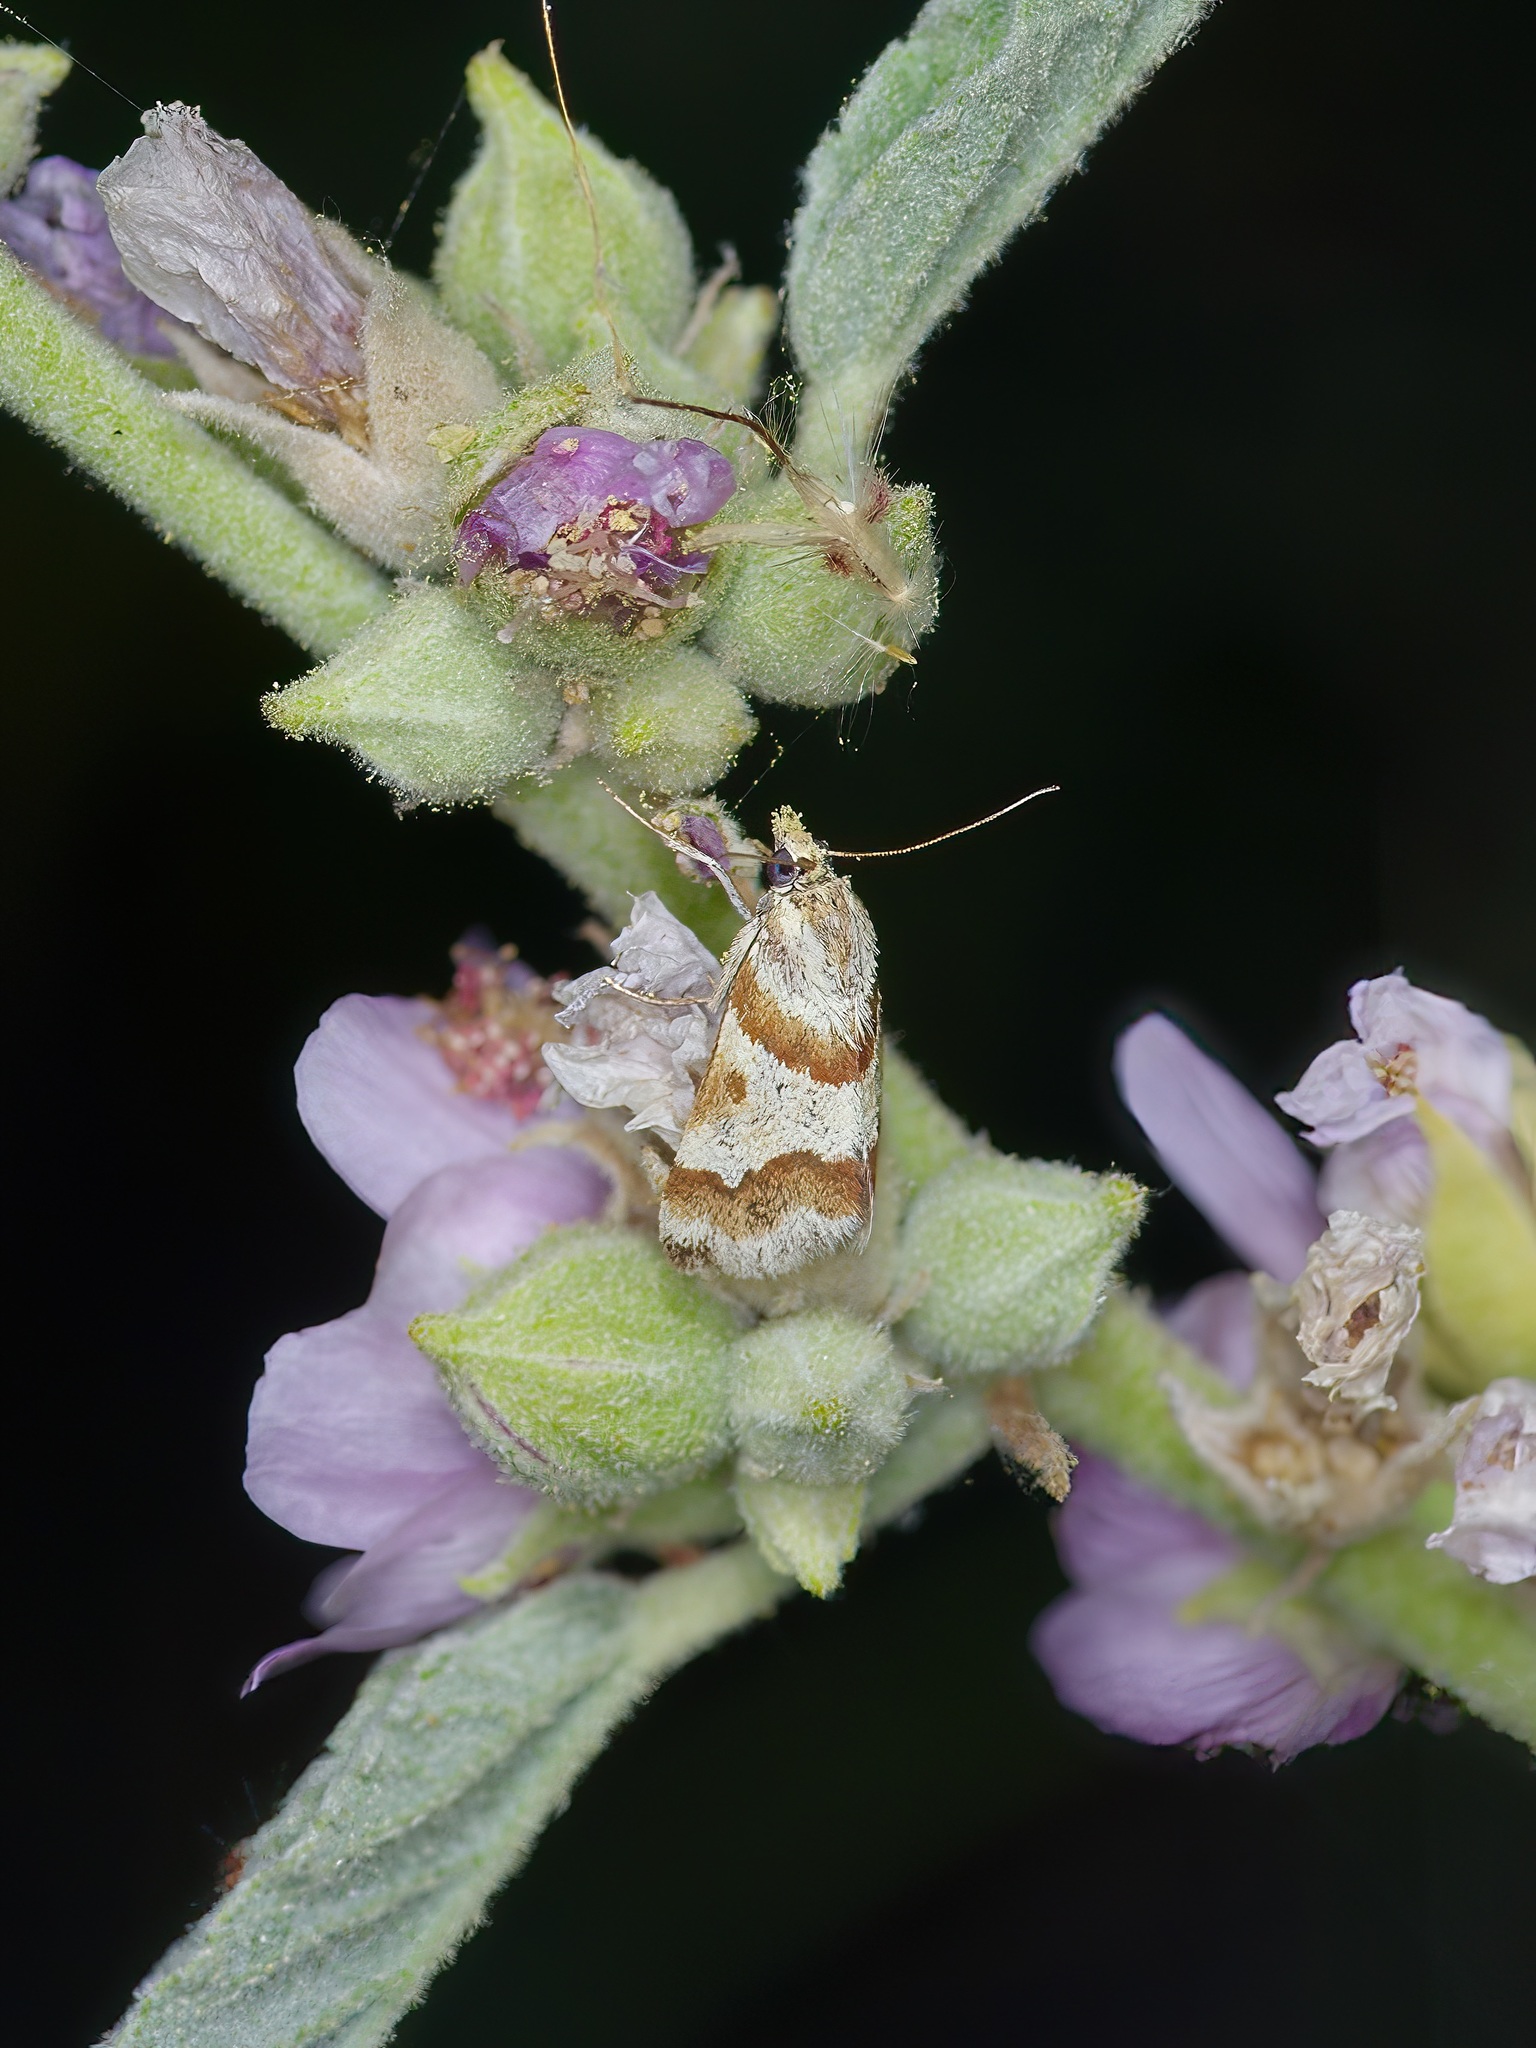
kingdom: Animalia
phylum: Arthropoda
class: Insecta
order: Lepidoptera
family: Crambidae
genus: Noctuelia
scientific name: Noctuelia Mimoschinia rufofascialis
